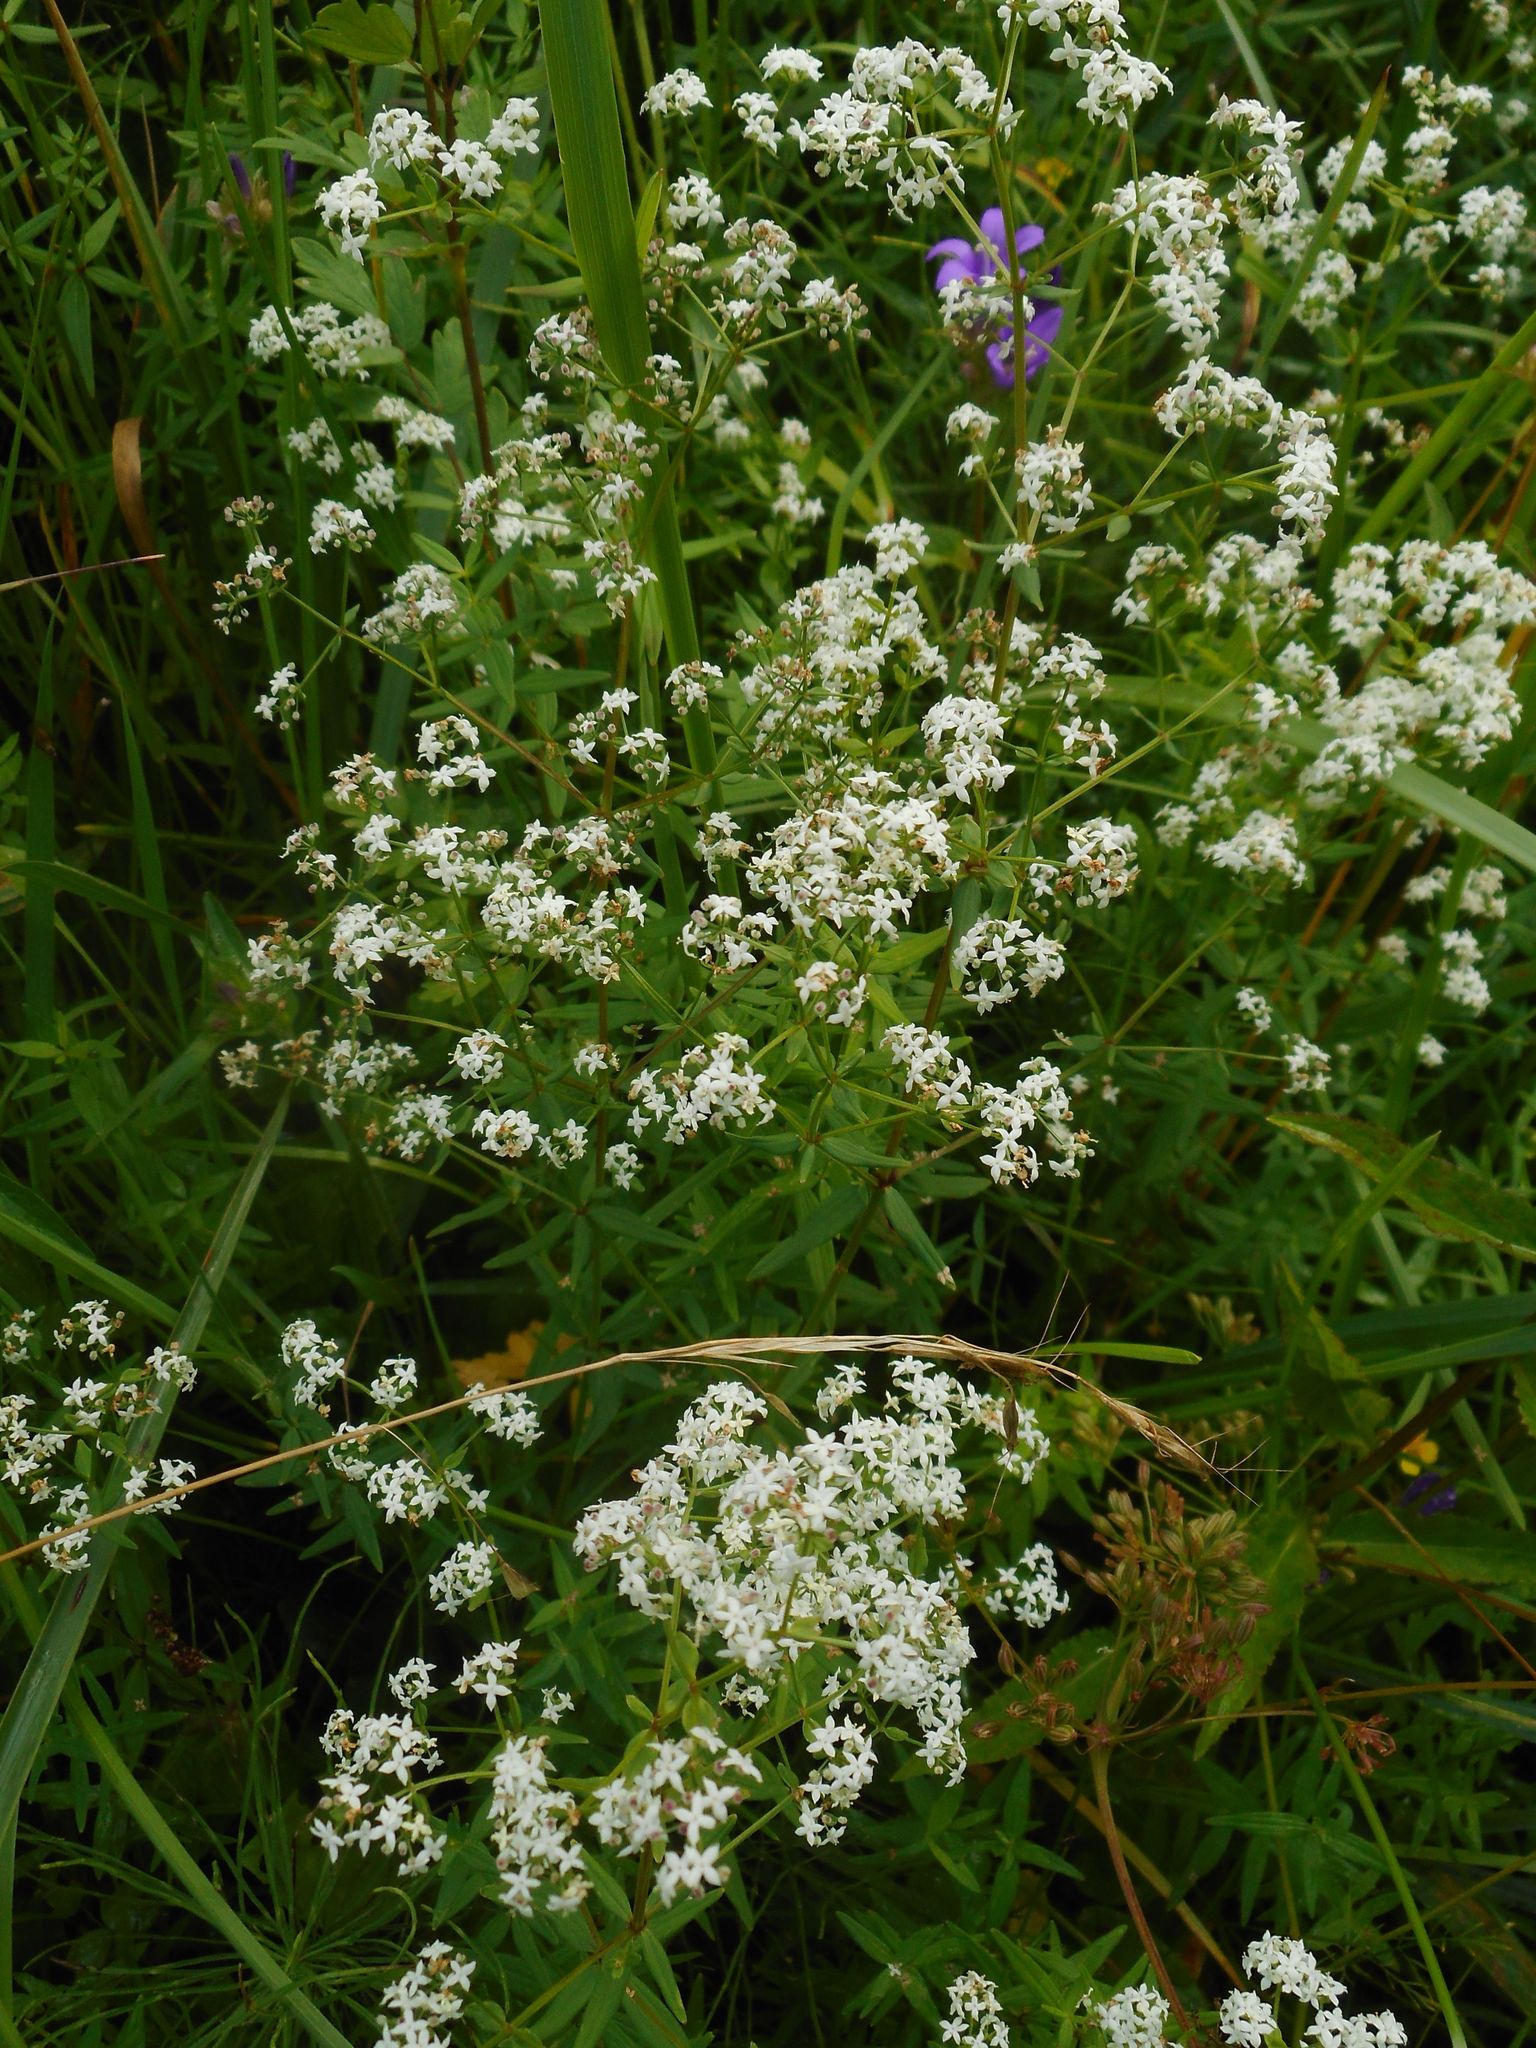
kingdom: Plantae
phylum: Tracheophyta
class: Magnoliopsida
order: Gentianales
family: Rubiaceae
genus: Galium
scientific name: Galium boreale
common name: Northern bedstraw
